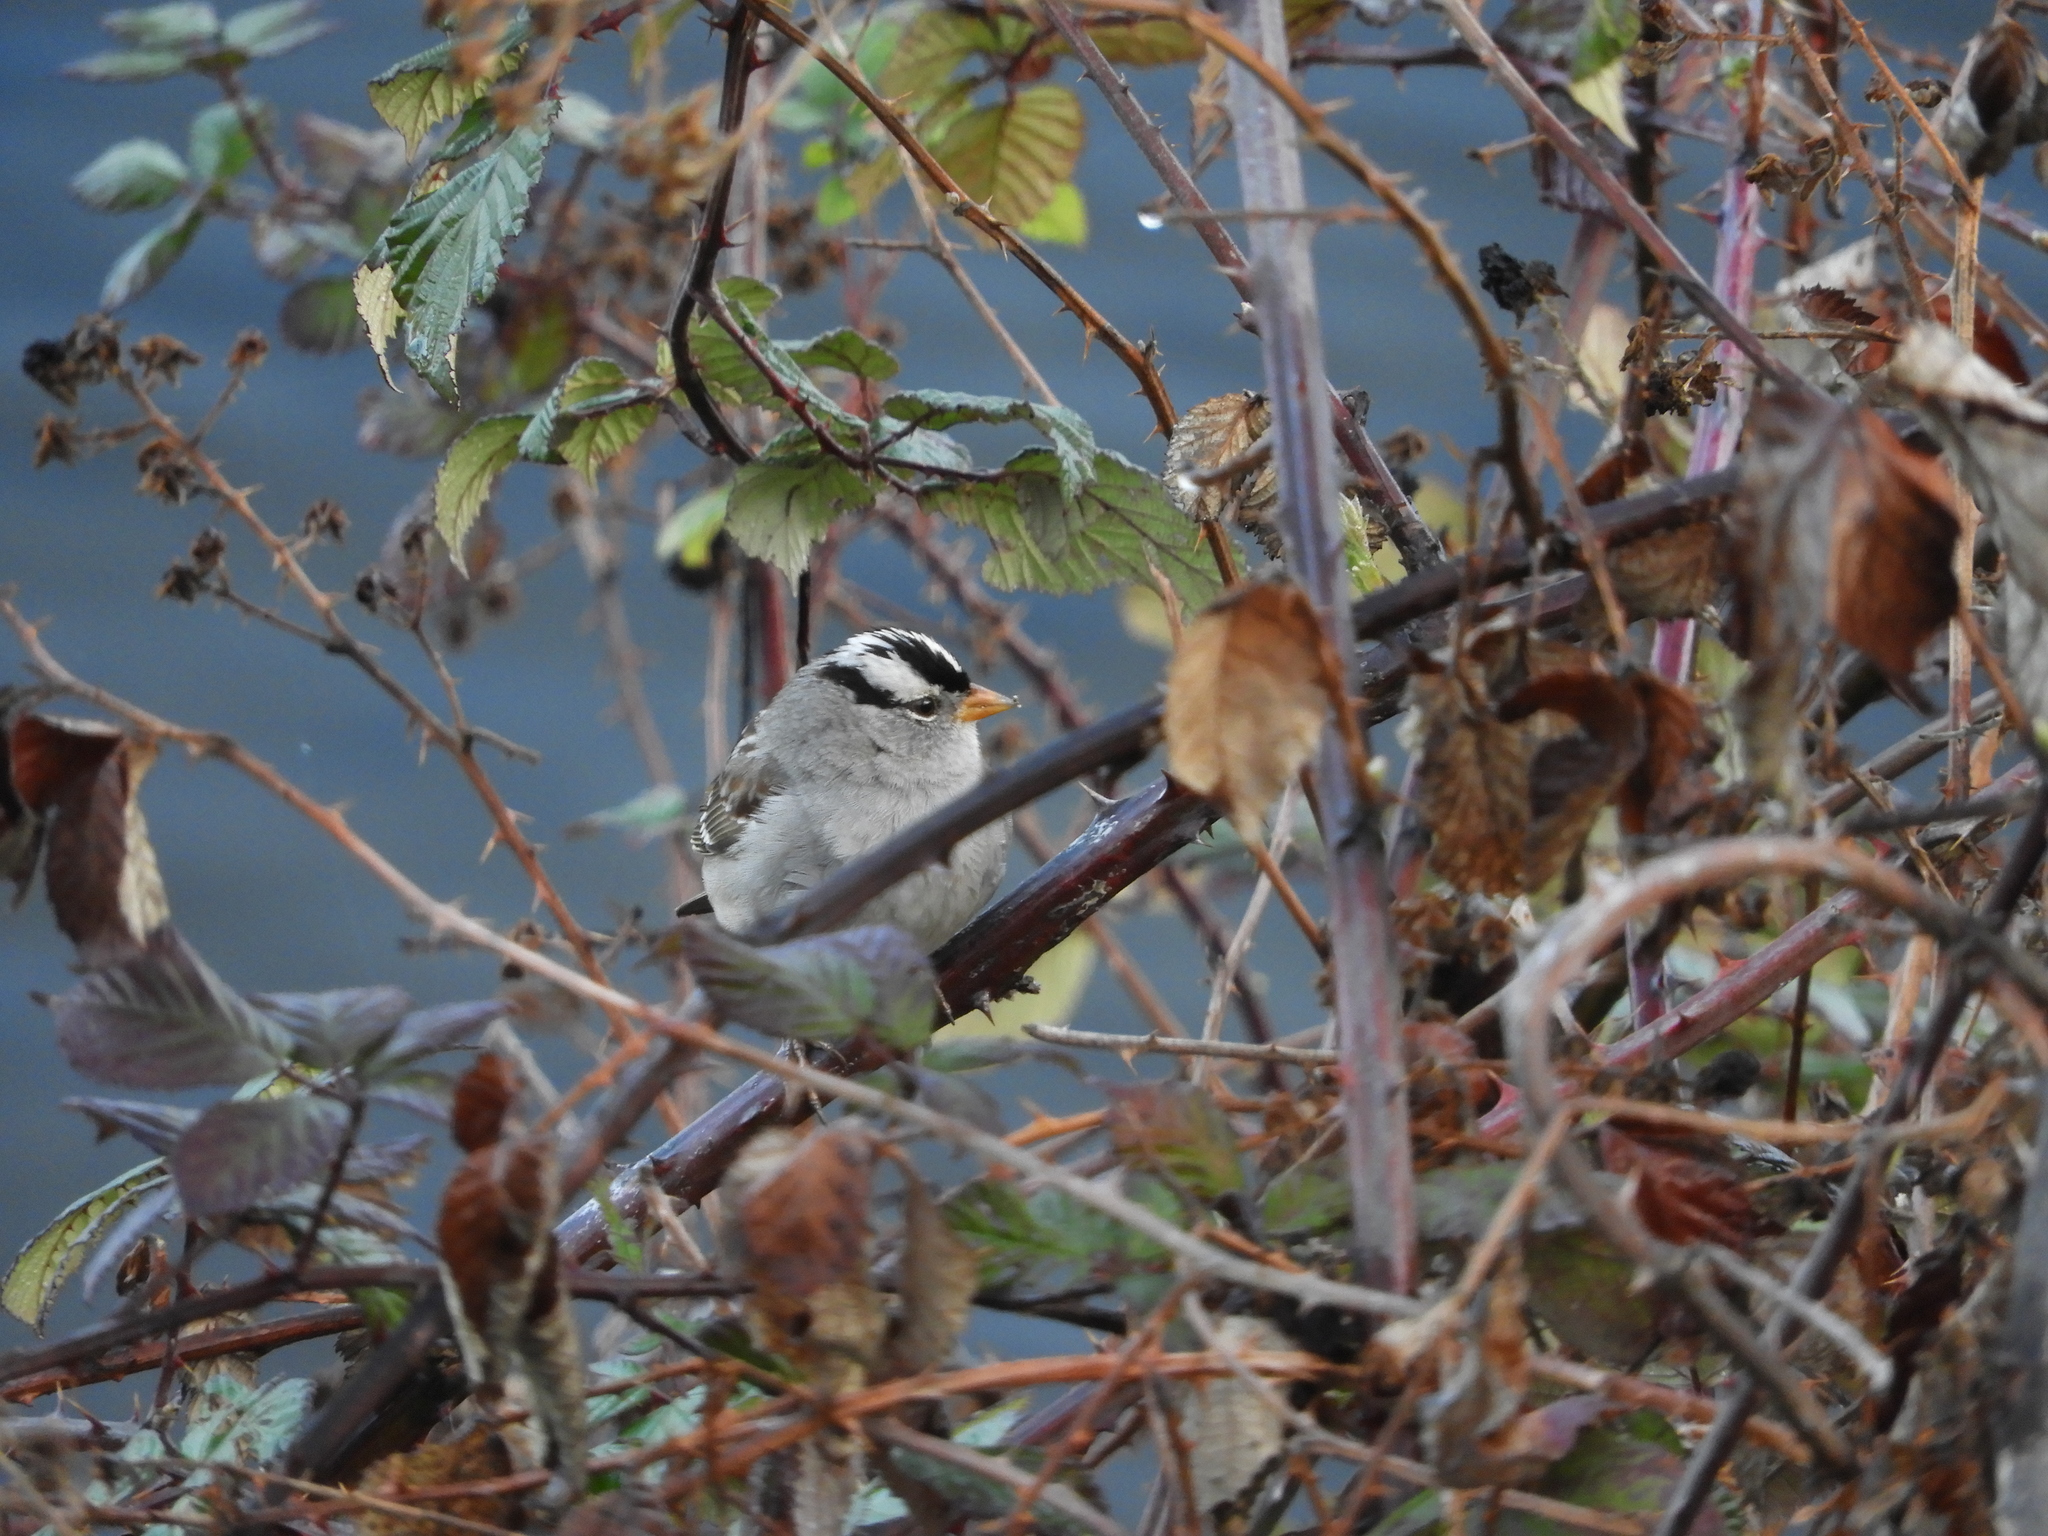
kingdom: Animalia
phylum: Chordata
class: Aves
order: Passeriformes
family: Passerellidae
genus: Zonotrichia
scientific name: Zonotrichia leucophrys
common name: White-crowned sparrow
